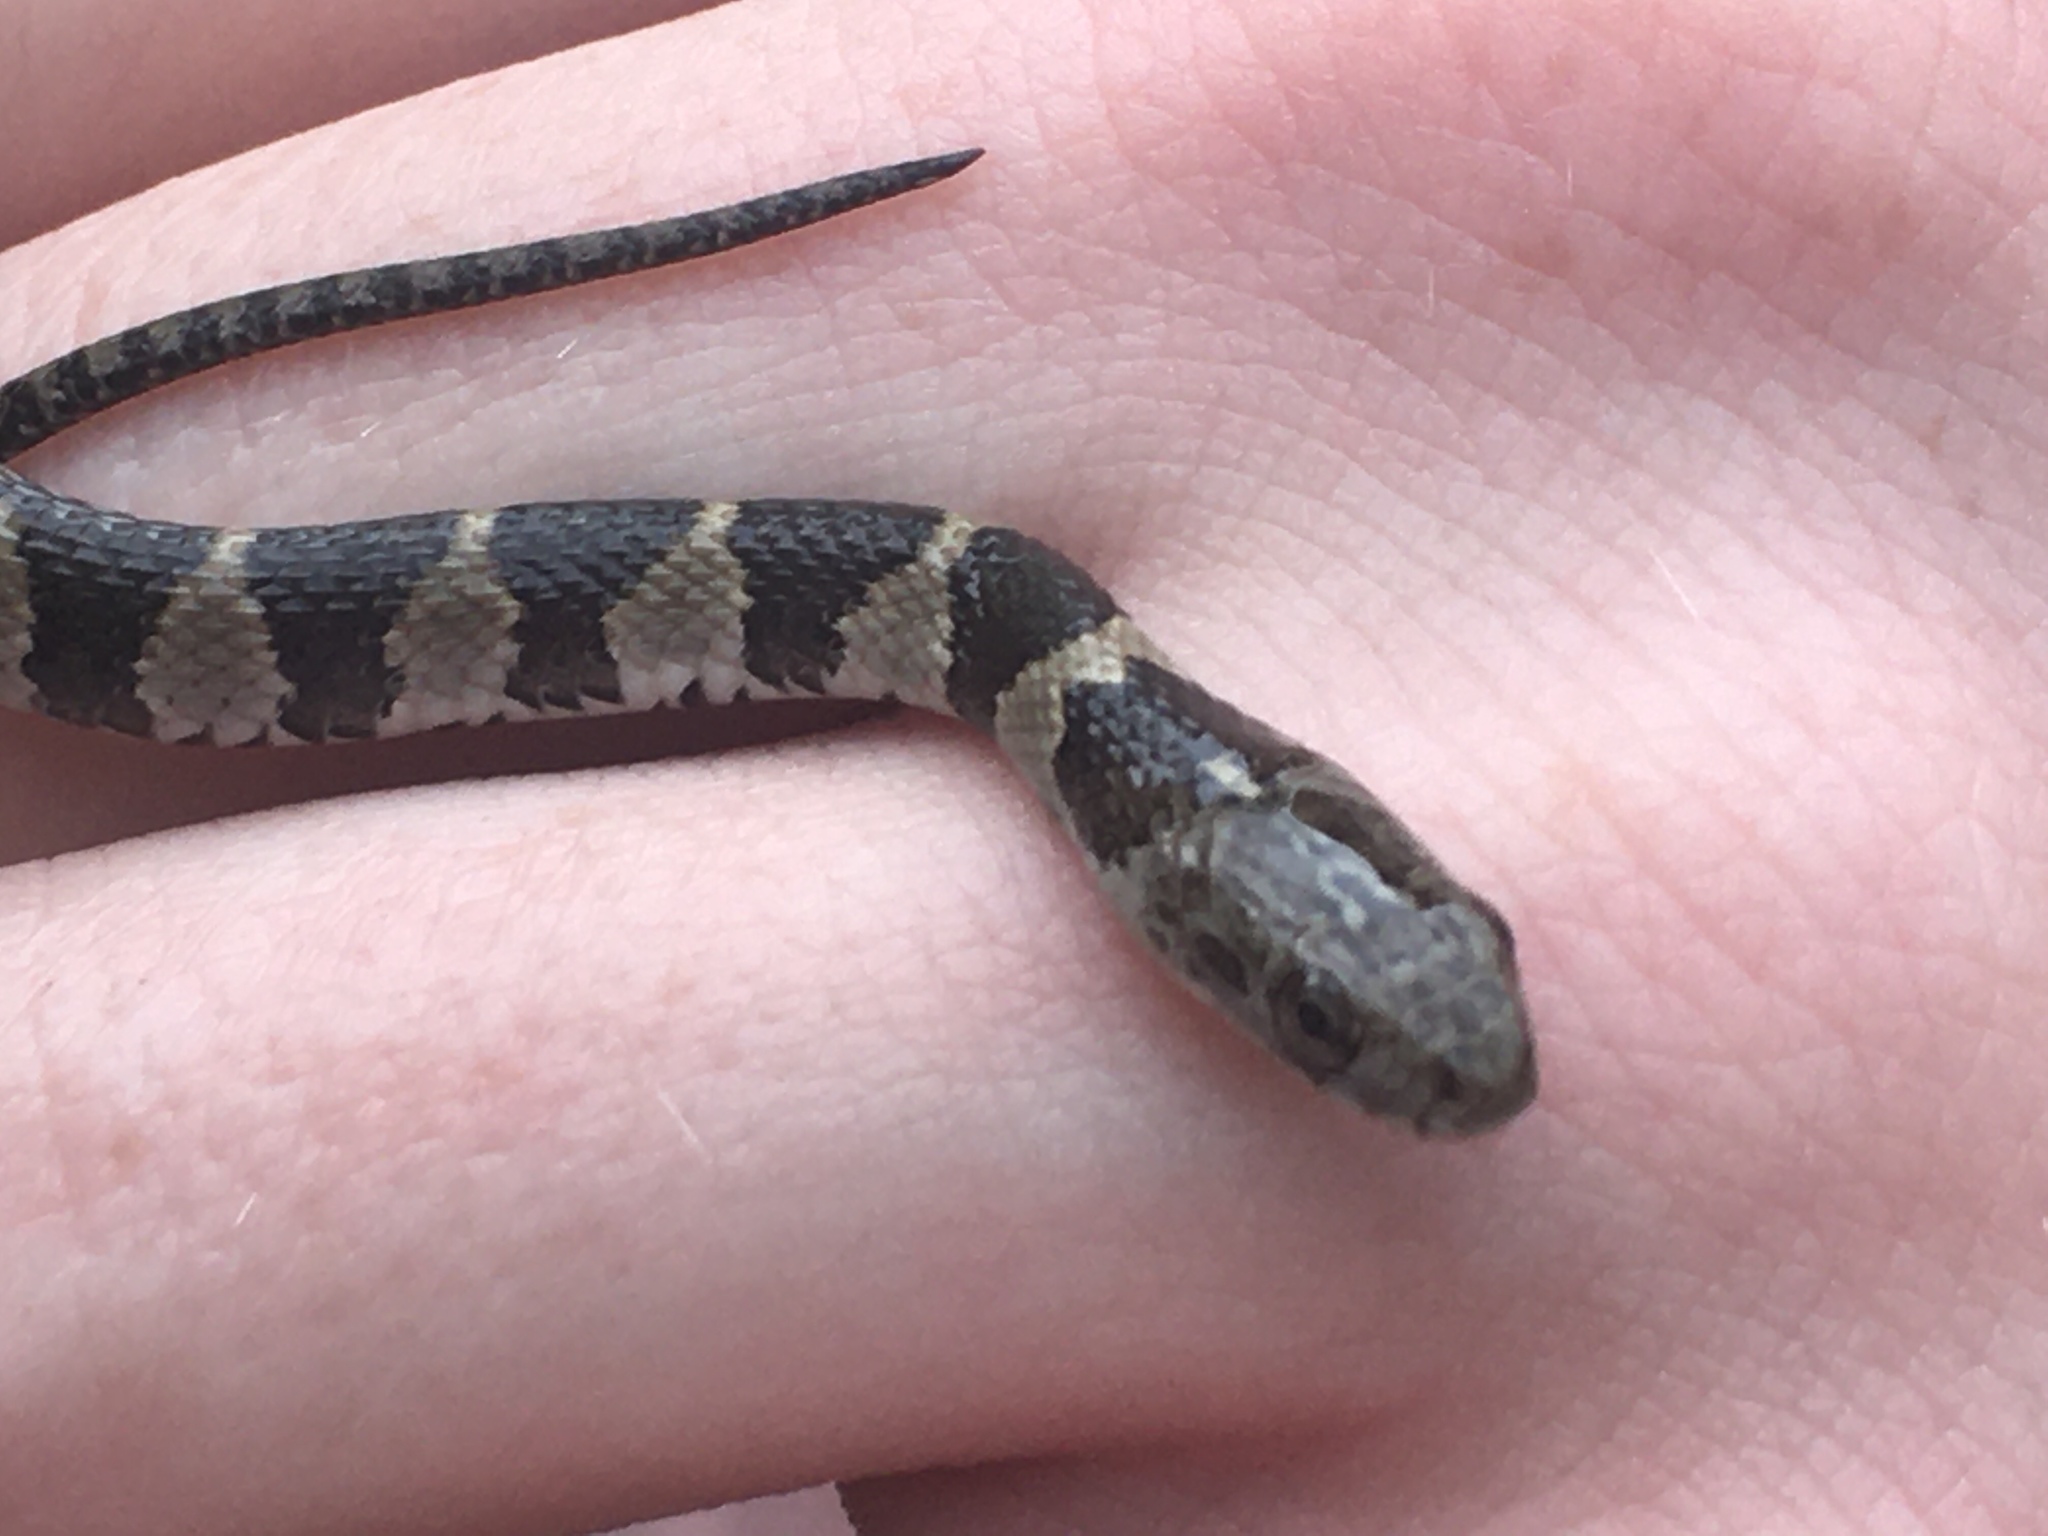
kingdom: Animalia
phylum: Chordata
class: Squamata
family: Colubridae
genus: Nerodia
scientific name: Nerodia sipedon
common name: Northern water snake
